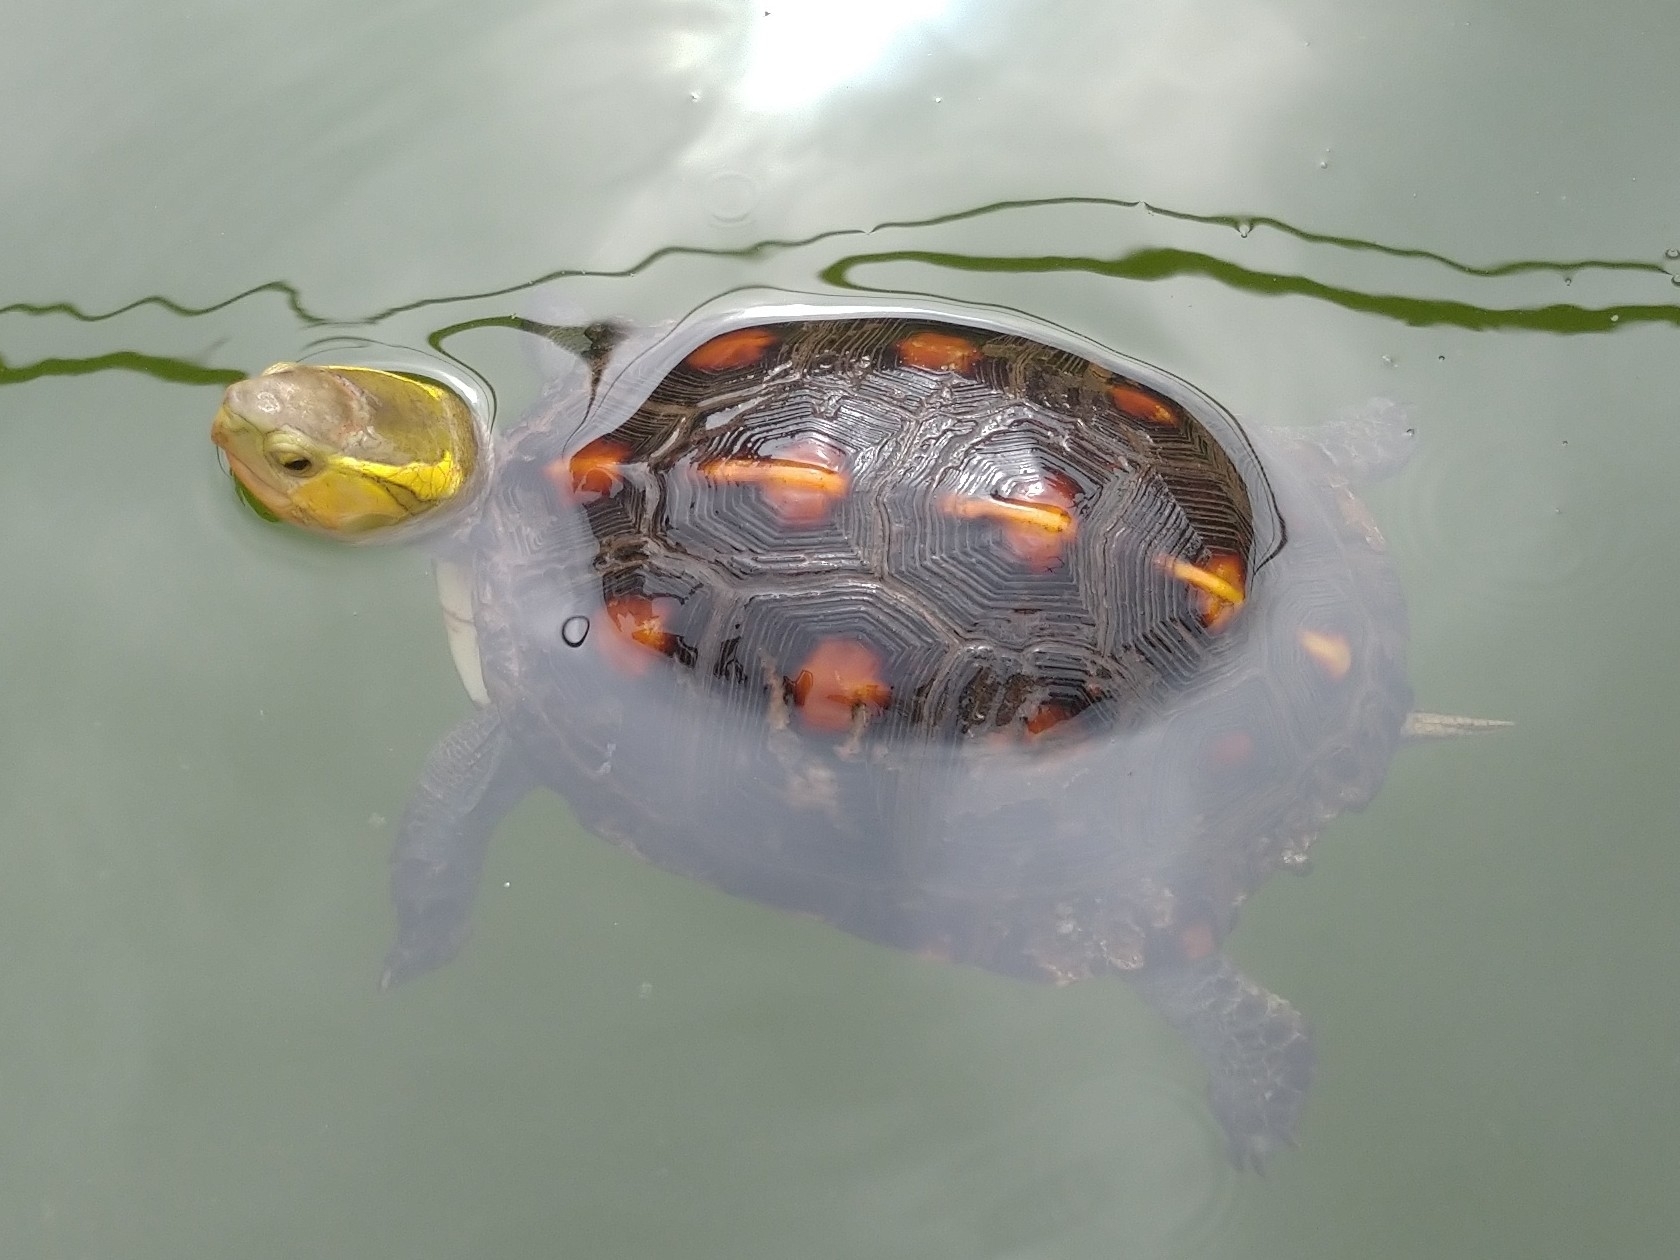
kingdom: Animalia
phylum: Chordata
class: Testudines
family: Geoemydidae
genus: Cuora
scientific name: Cuora flavomarginata
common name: Yellow-margined box turtle
